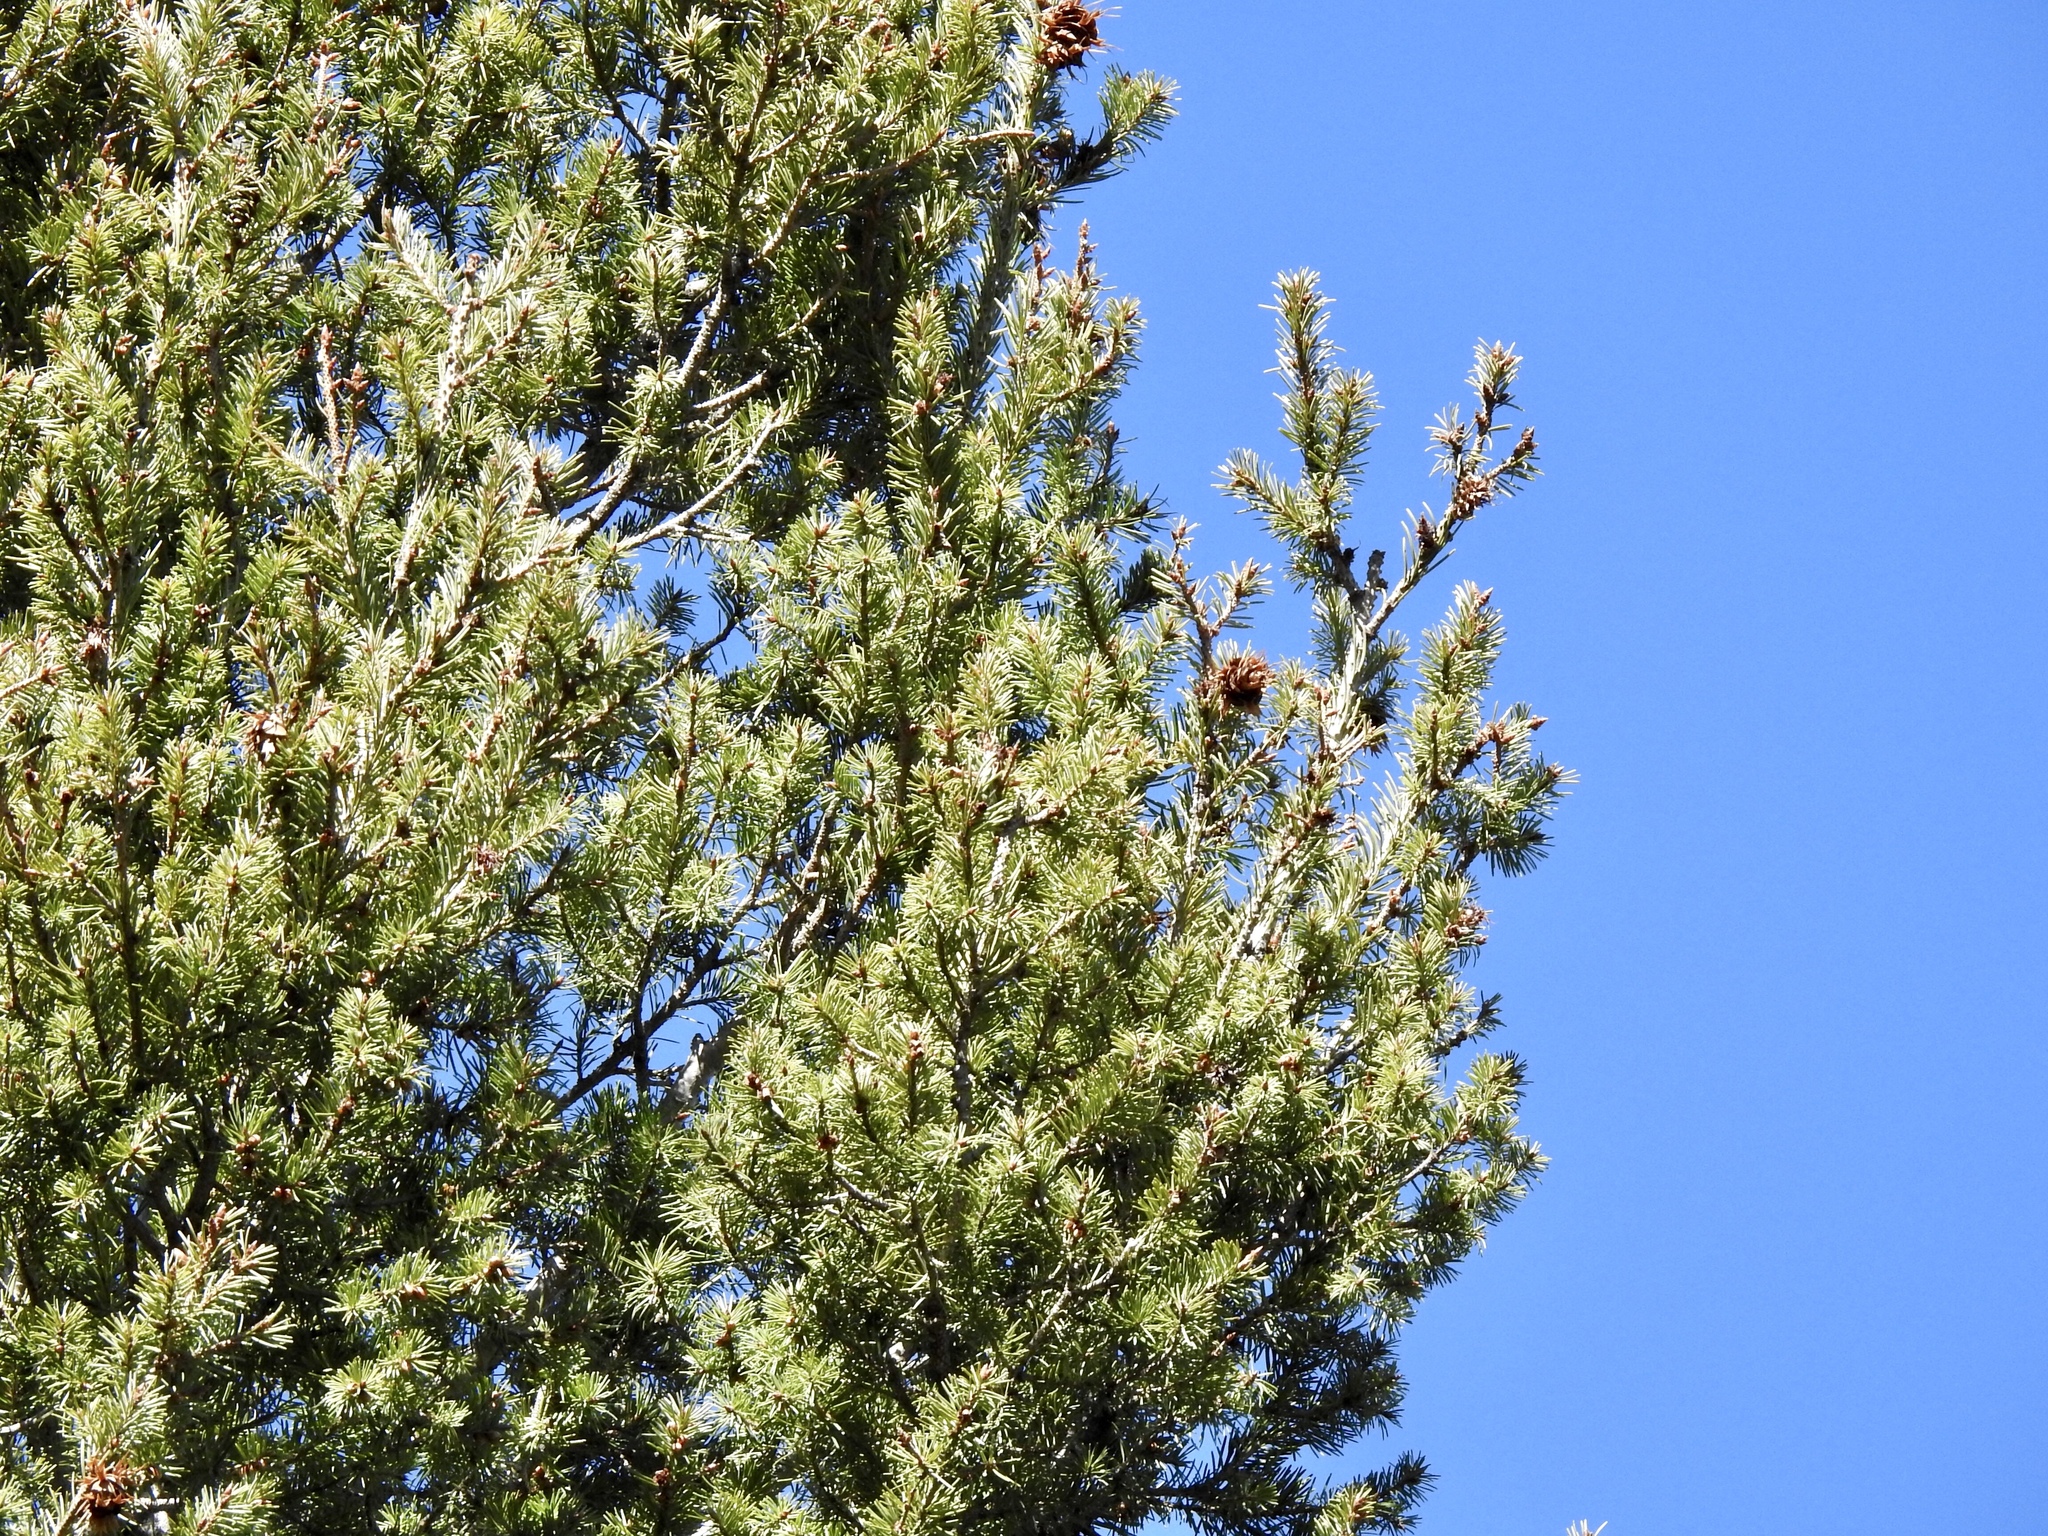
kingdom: Plantae
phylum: Tracheophyta
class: Pinopsida
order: Pinales
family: Pinaceae
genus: Pseudotsuga
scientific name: Pseudotsuga menziesii
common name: Douglas fir
